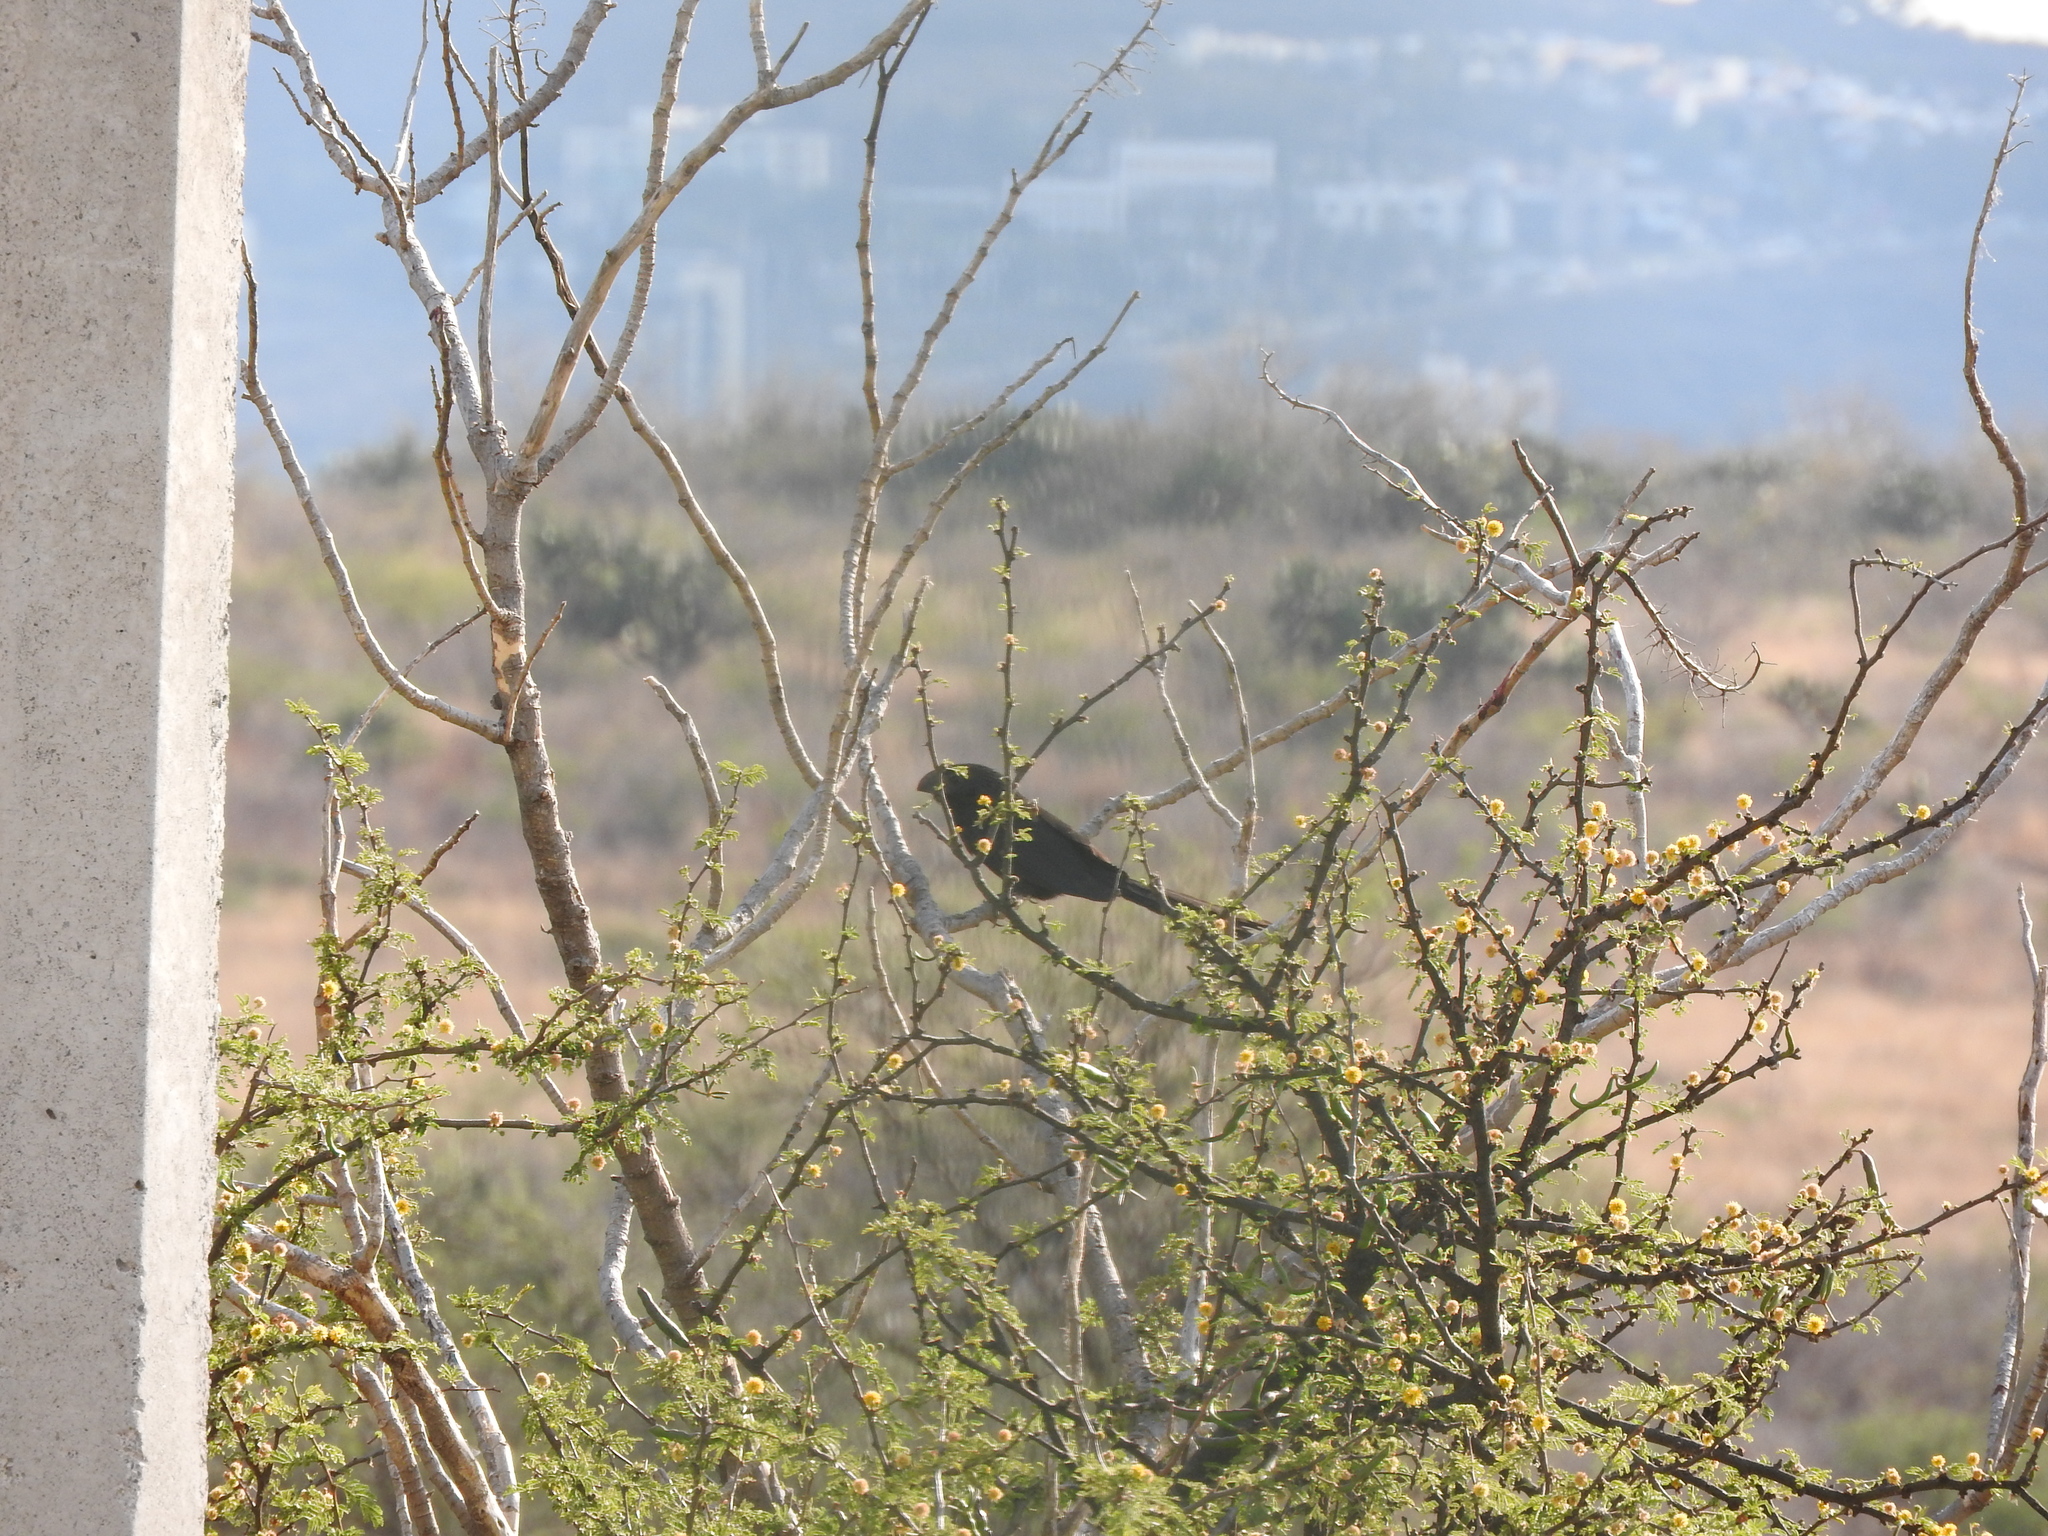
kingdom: Animalia
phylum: Chordata
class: Aves
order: Cuculiformes
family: Cuculidae
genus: Crotophaga
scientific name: Crotophaga sulcirostris
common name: Groove-billed ani
